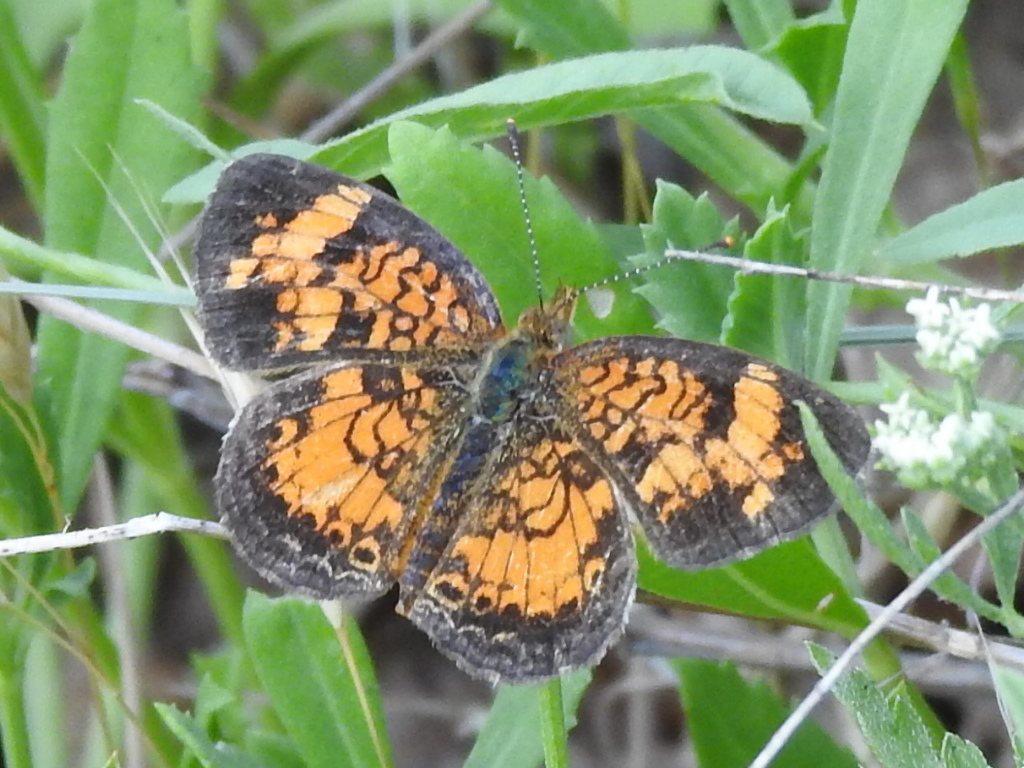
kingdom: Animalia
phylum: Arthropoda
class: Insecta
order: Lepidoptera
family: Nymphalidae
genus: Phyciodes
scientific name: Phyciodes tharos
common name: Pearl crescent
